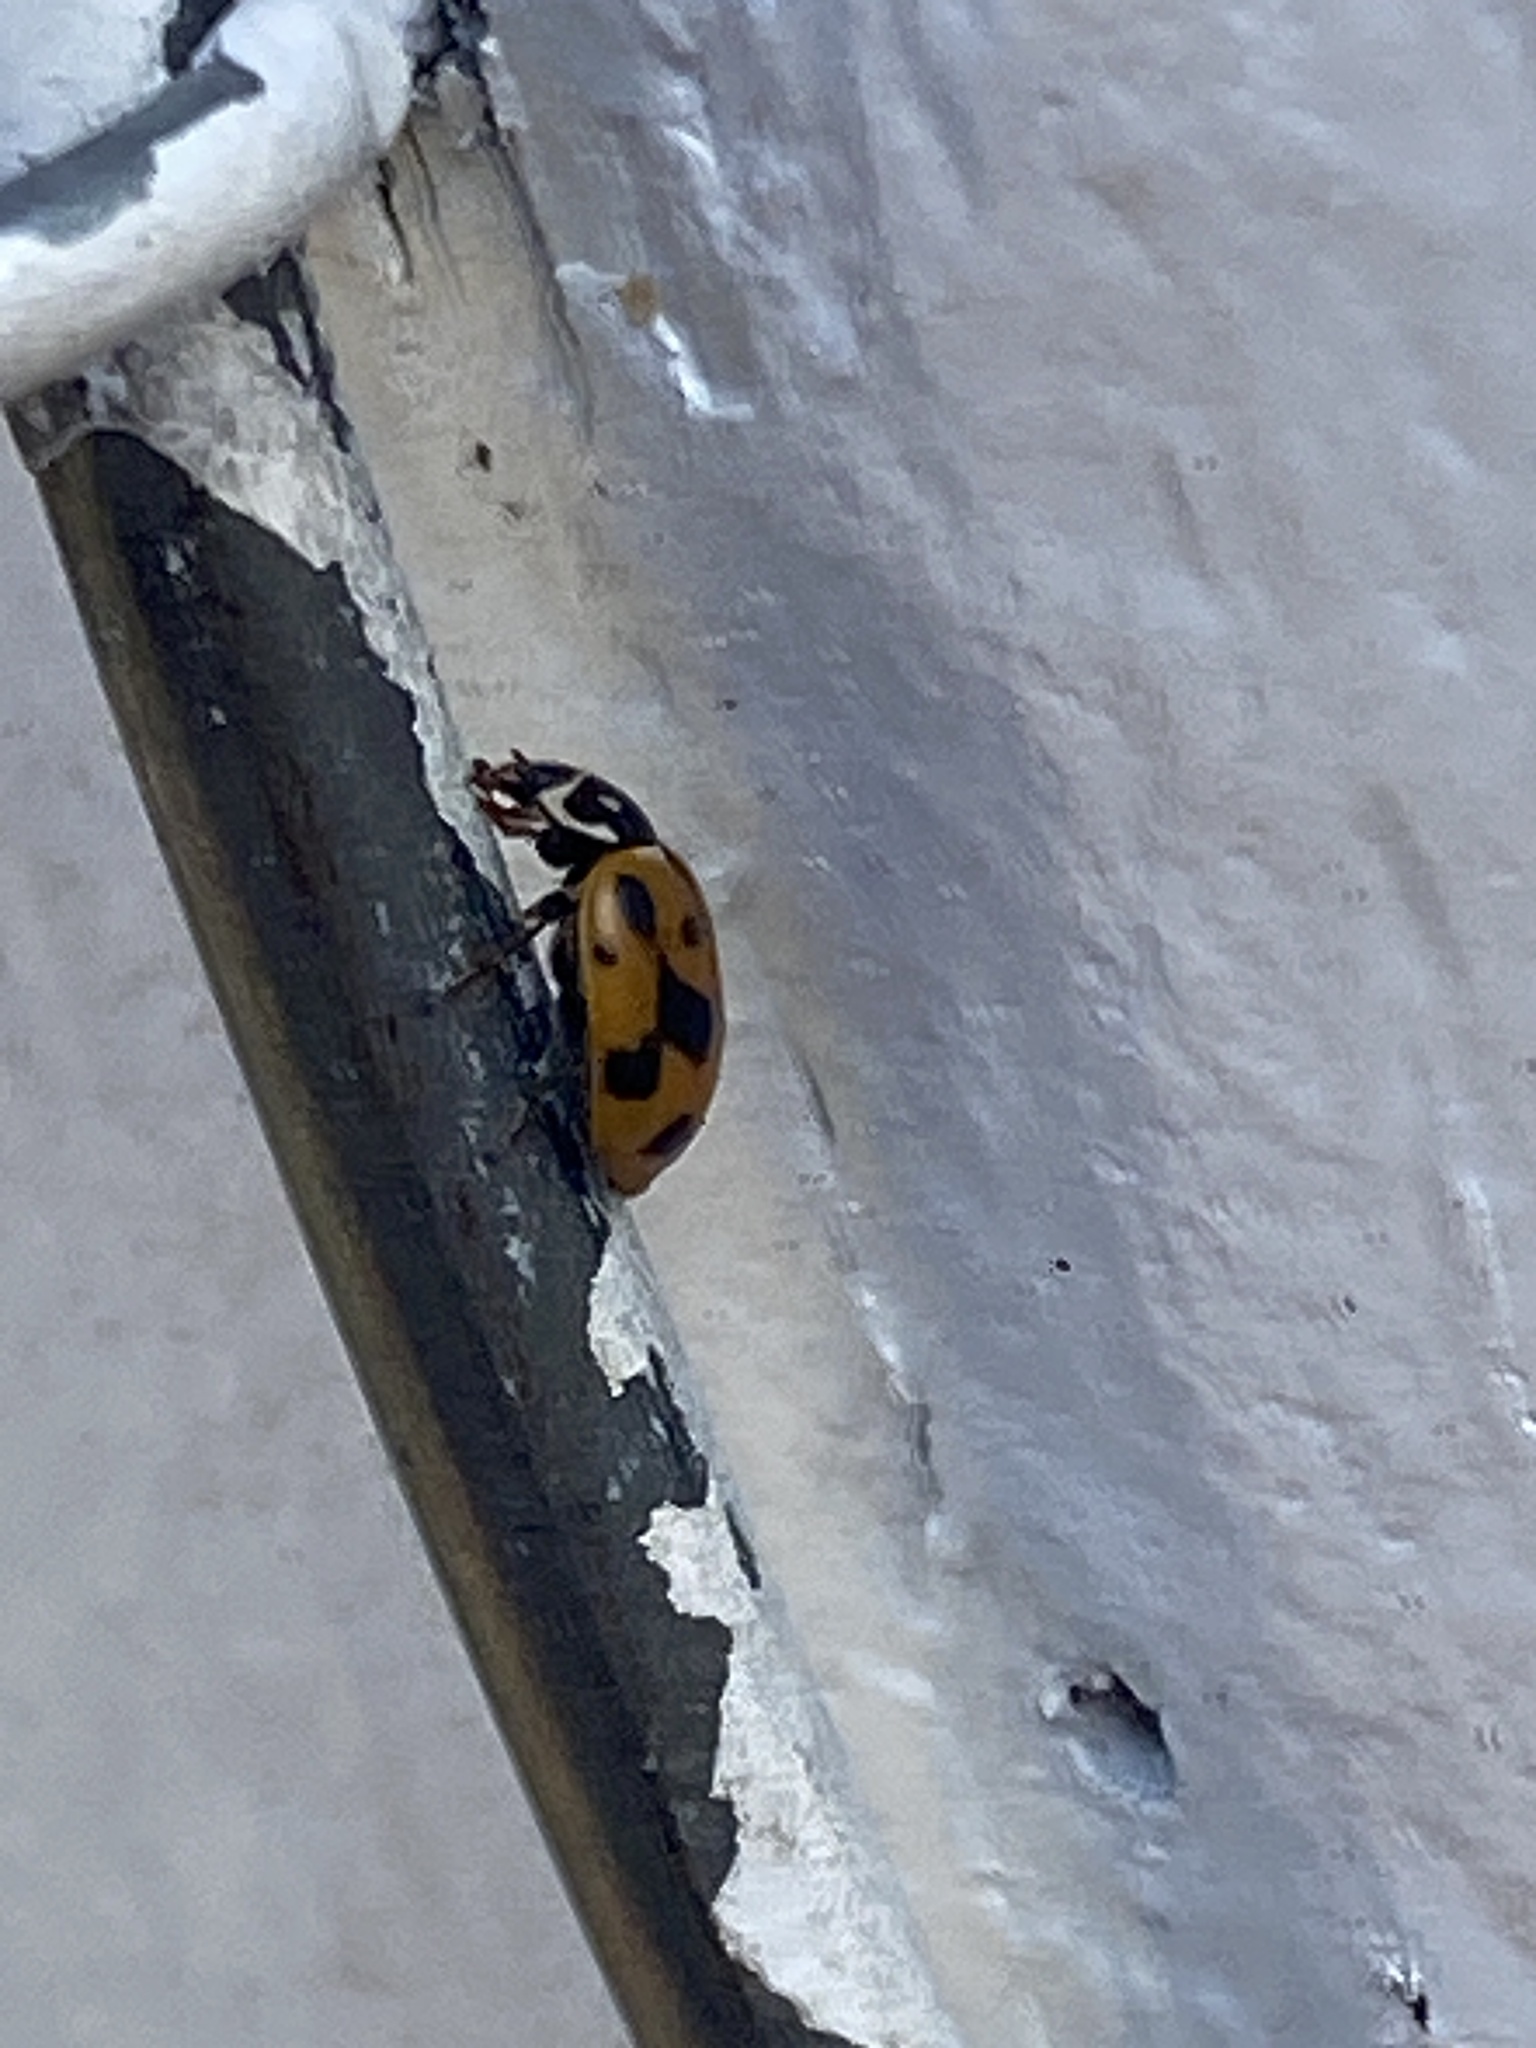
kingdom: Animalia
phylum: Arthropoda
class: Insecta
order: Coleoptera
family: Coccinellidae
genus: Hippodamia
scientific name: Hippodamia variegata
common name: Ladybird beetle
